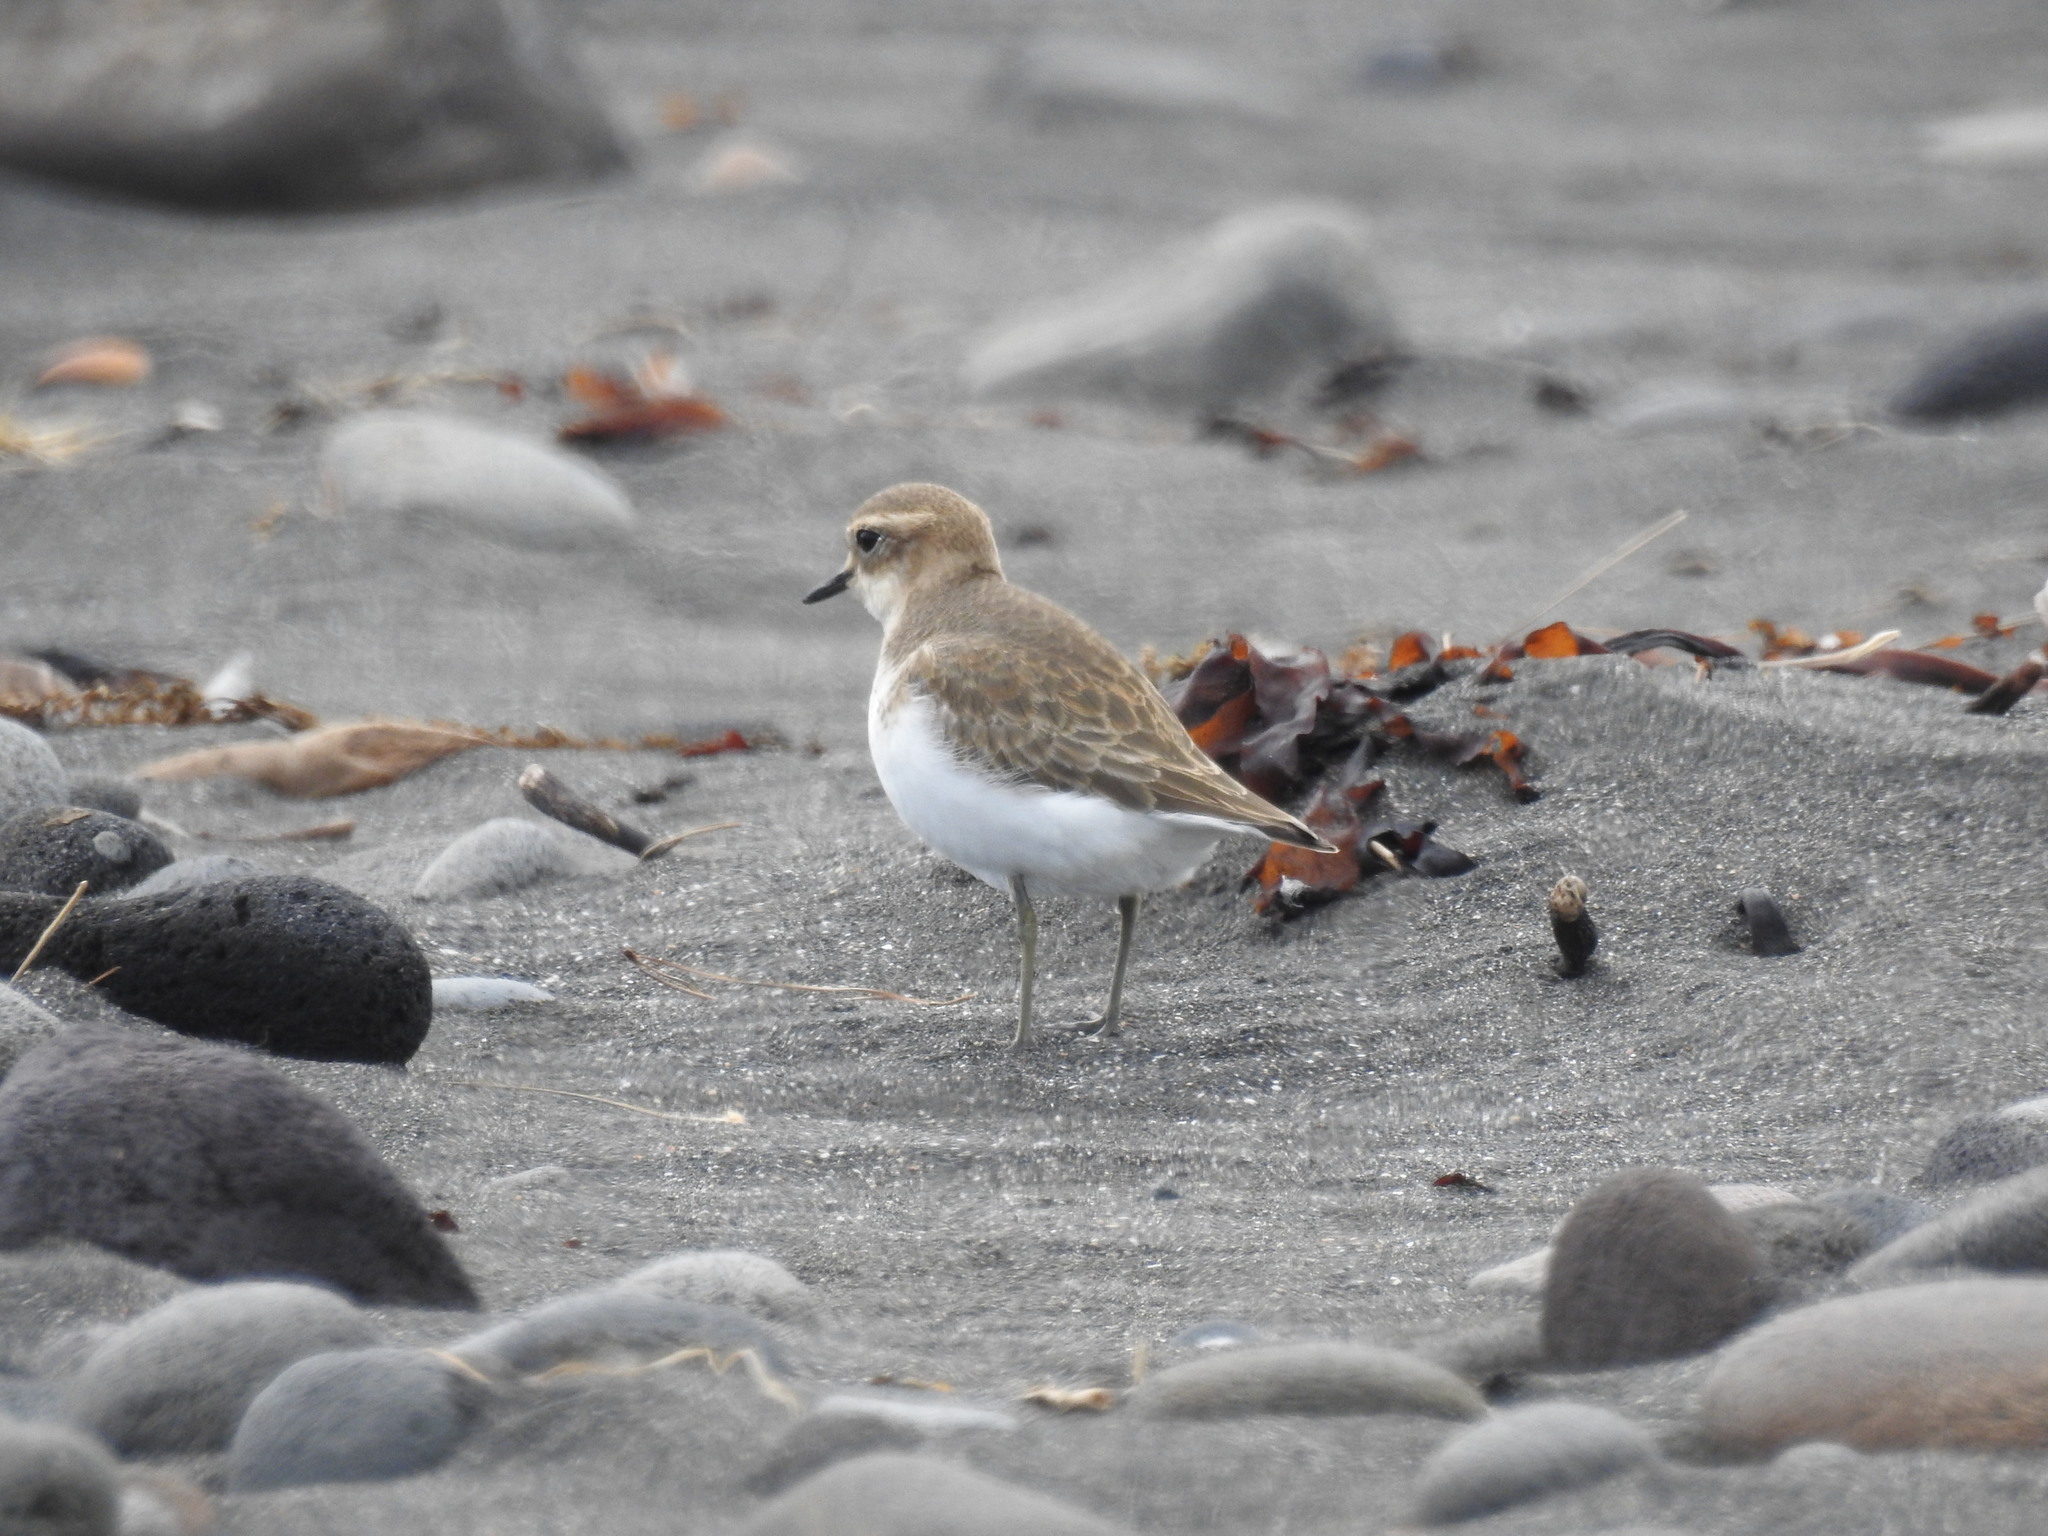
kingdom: Animalia
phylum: Chordata
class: Aves
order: Charadriiformes
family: Charadriidae
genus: Anarhynchus
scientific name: Anarhynchus
